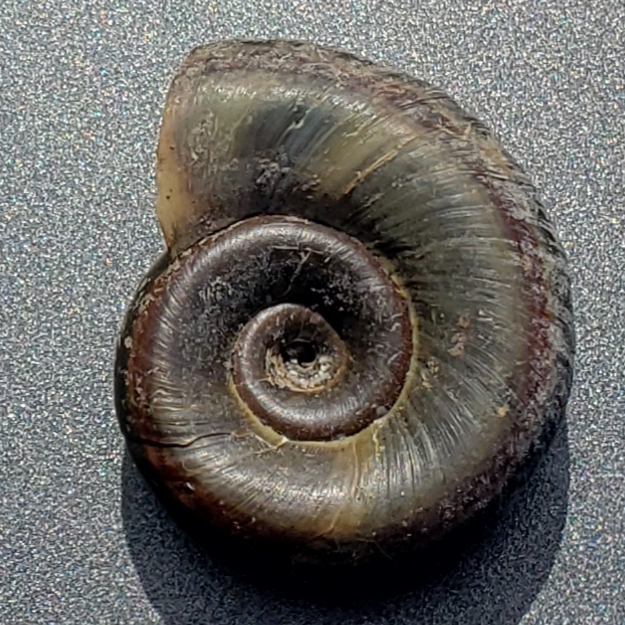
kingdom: Animalia
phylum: Mollusca
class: Gastropoda
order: Architaenioglossa
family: Ampullariidae
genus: Marisa
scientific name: Marisa cornuarietis
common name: Giant ramshorn snail
